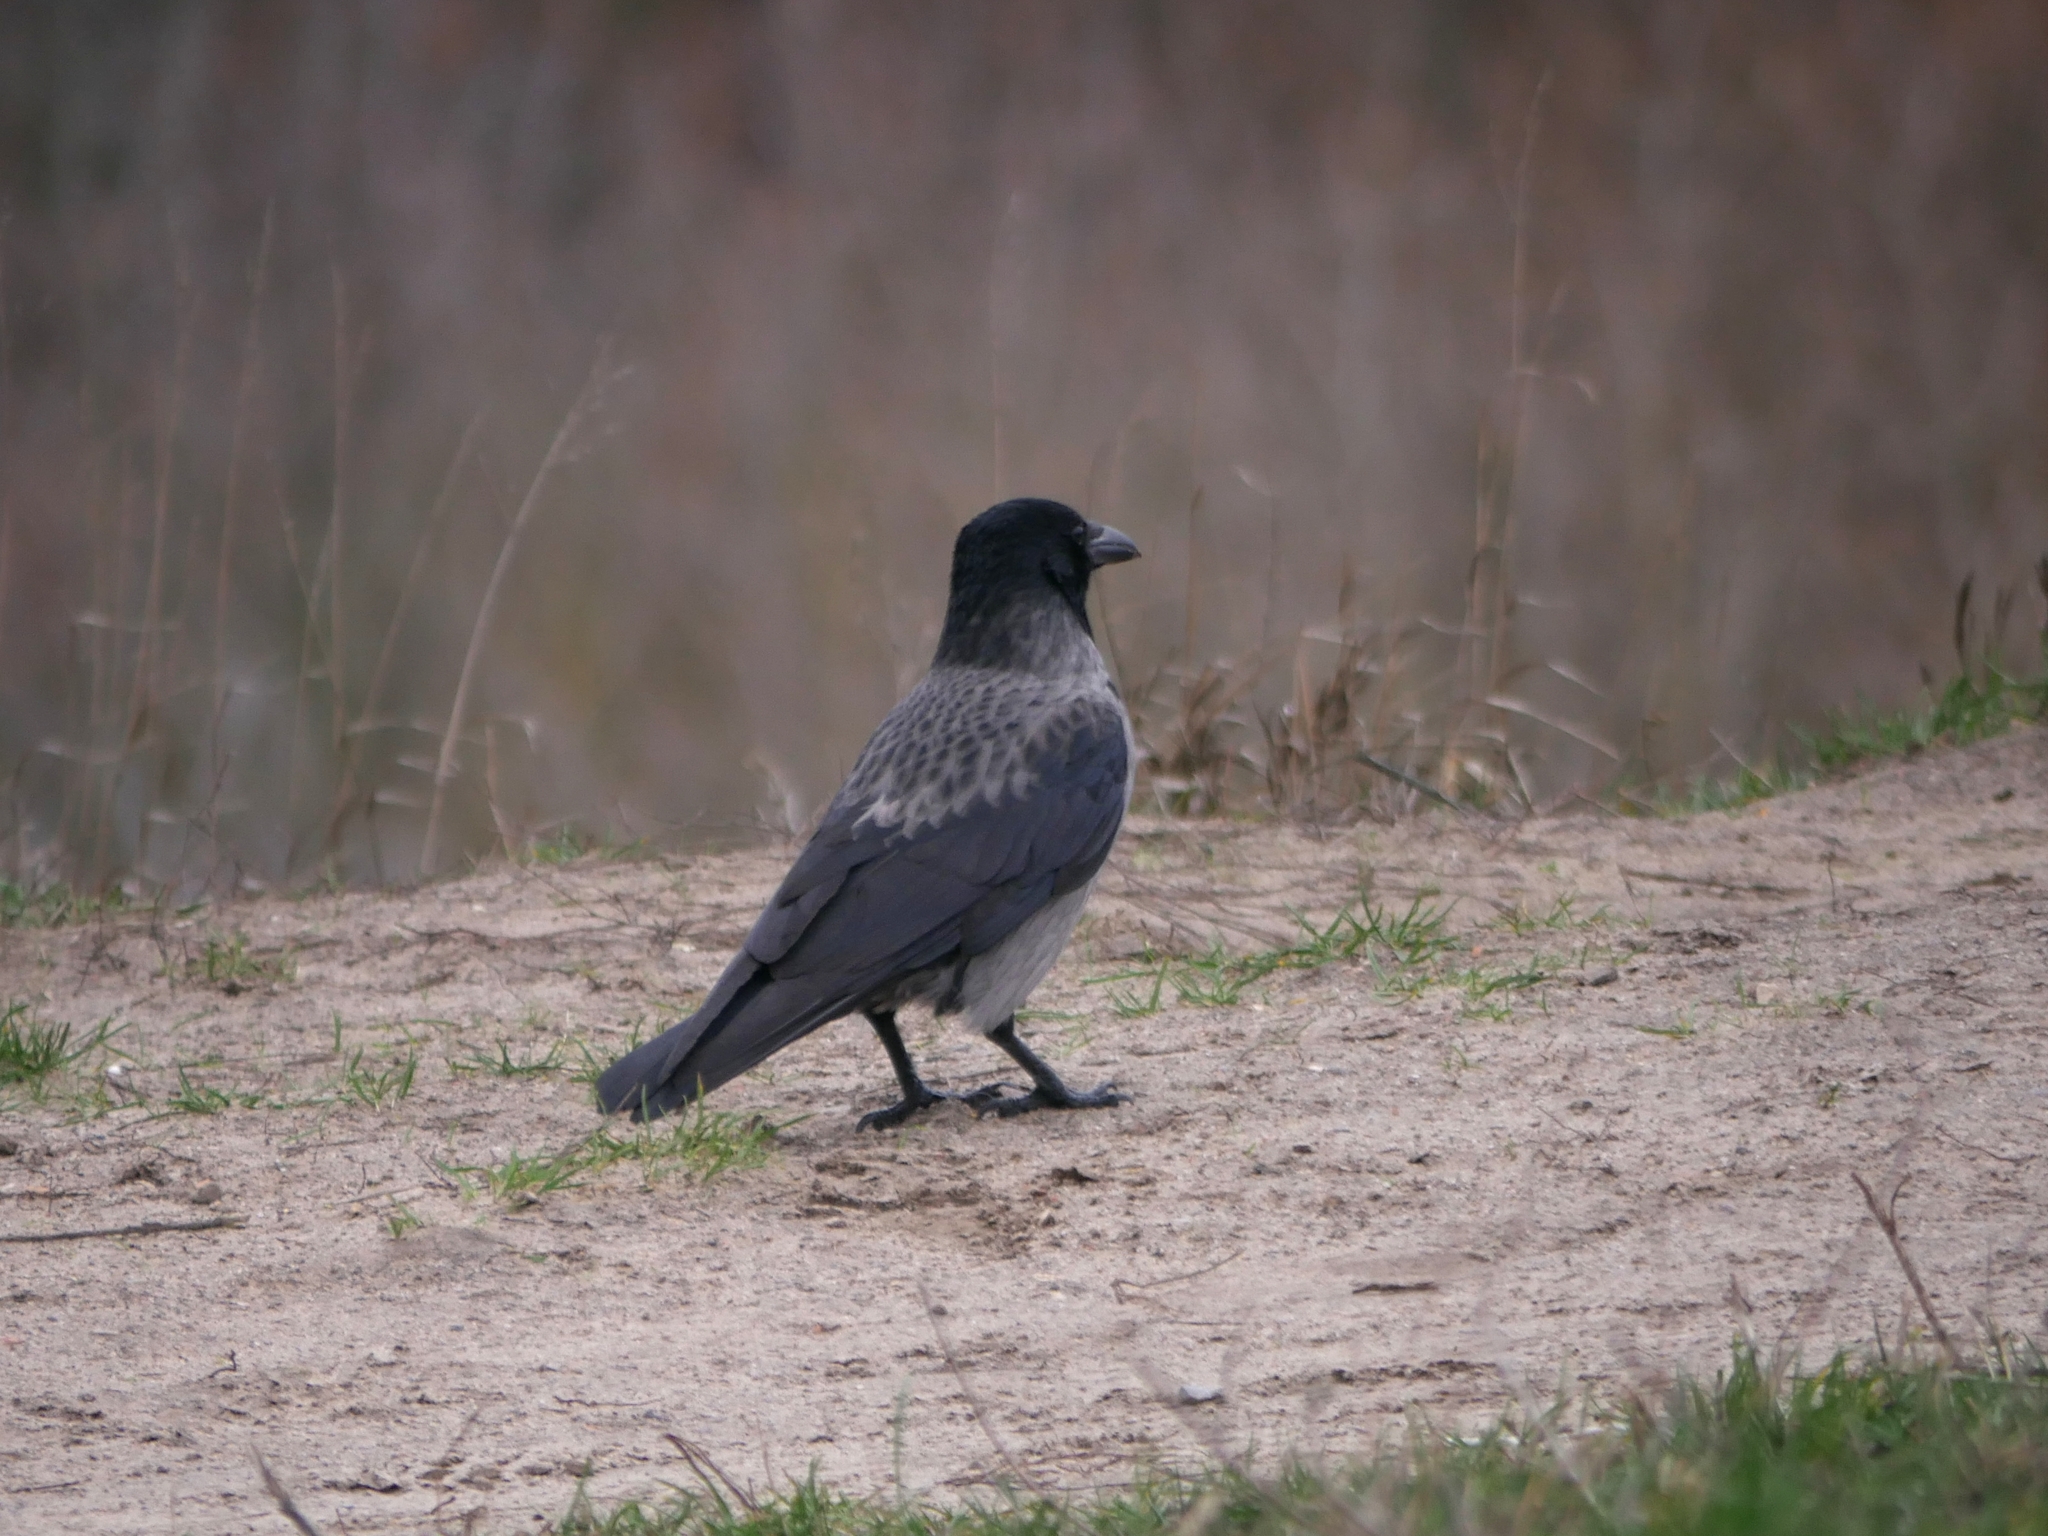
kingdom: Animalia
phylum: Chordata
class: Aves
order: Passeriformes
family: Corvidae
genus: Corvus
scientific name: Corvus
